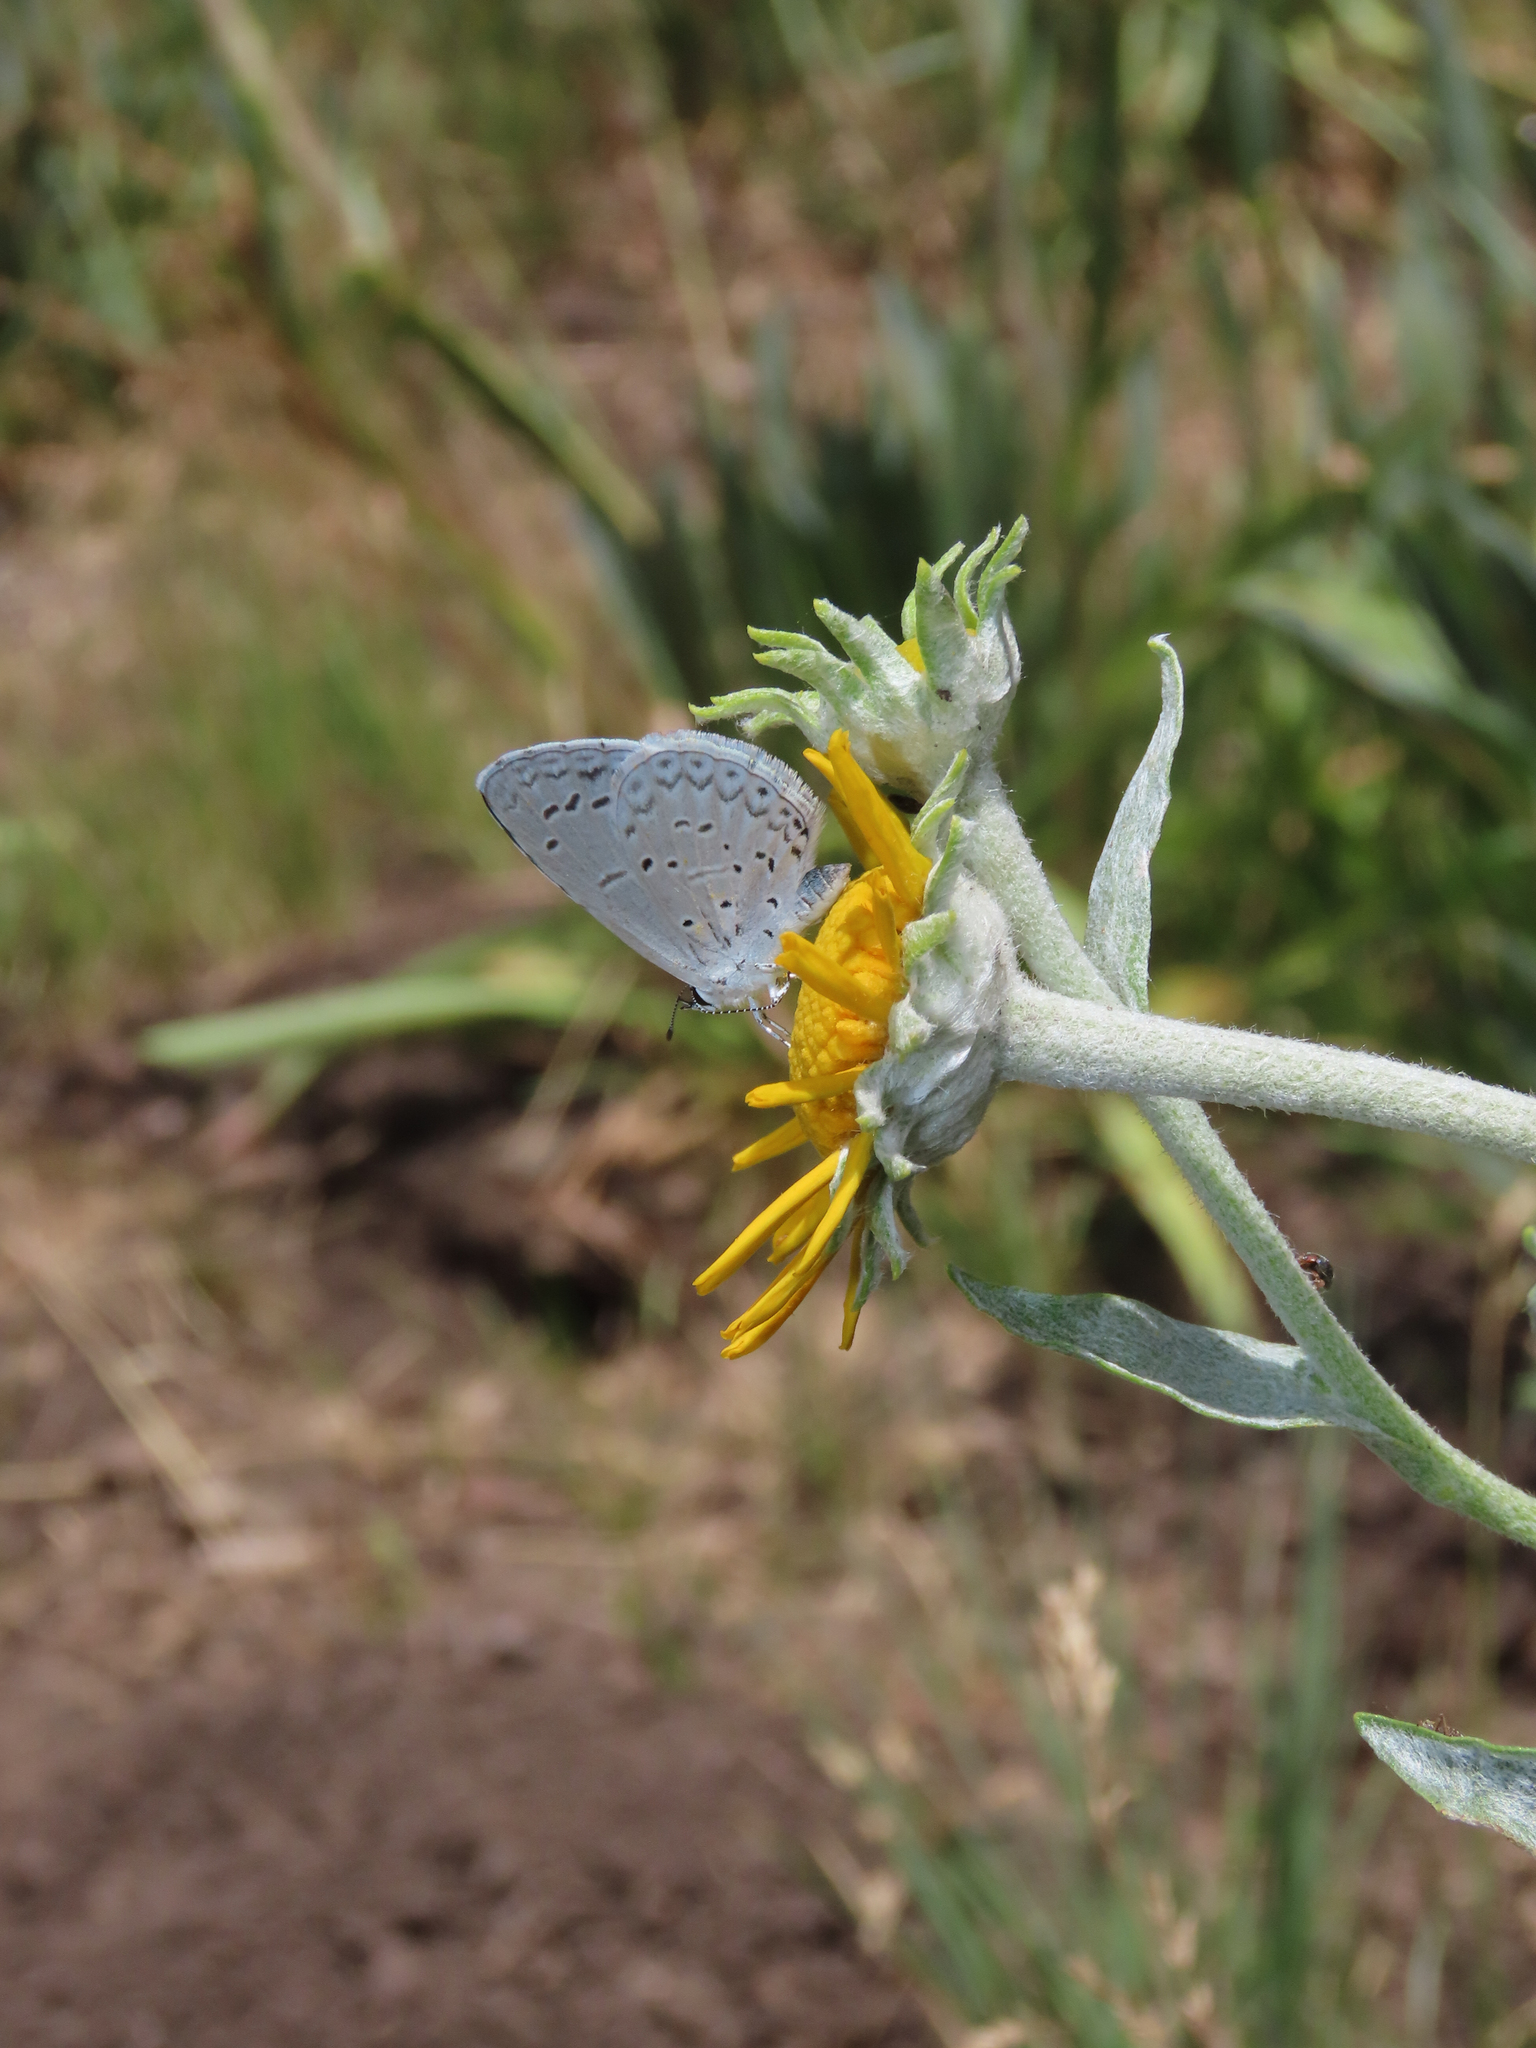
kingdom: Animalia
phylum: Arthropoda
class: Insecta
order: Lepidoptera
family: Lycaenidae
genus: Celastrina
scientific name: Celastrina ladon
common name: Spring azure
